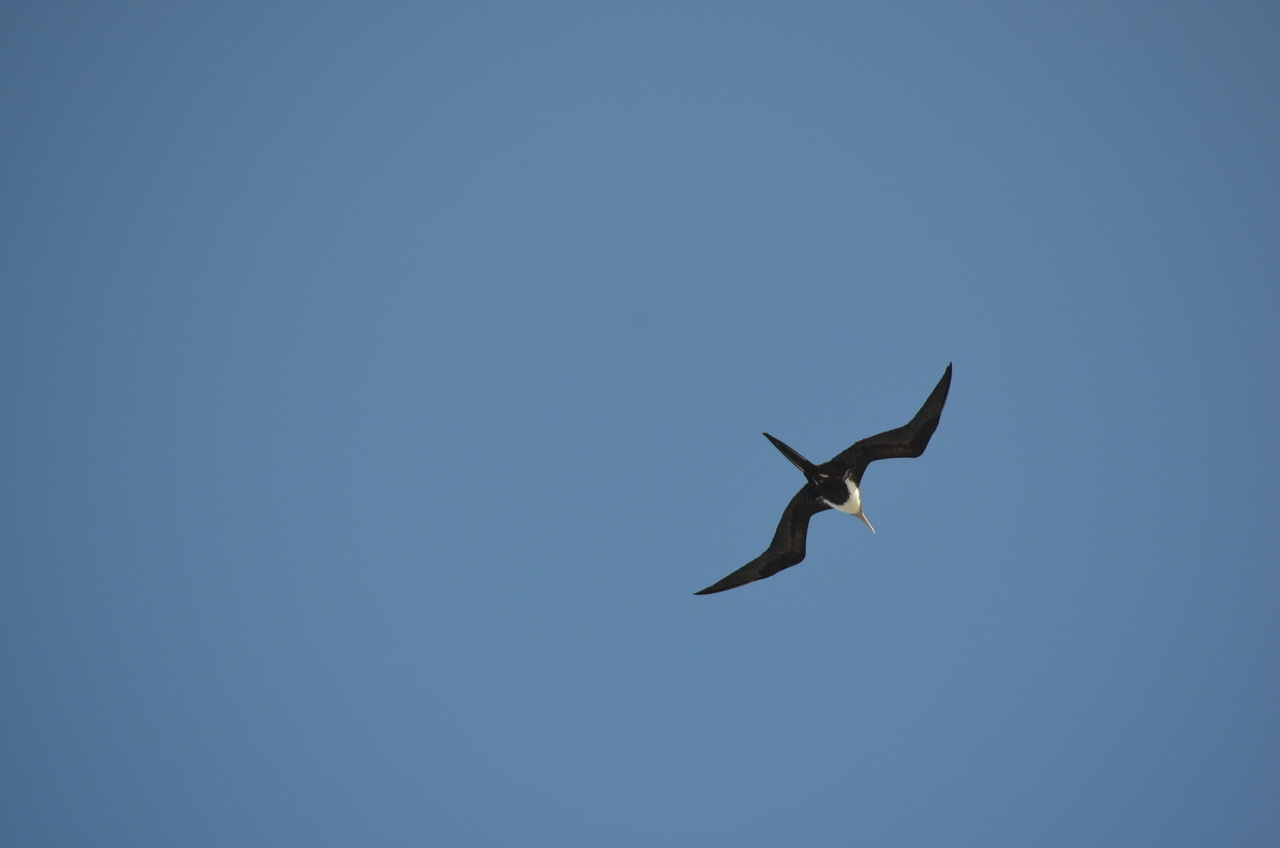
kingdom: Animalia
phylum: Chordata
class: Aves
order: Suliformes
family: Fregatidae
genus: Fregata
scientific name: Fregata minor
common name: Great frigatebird
